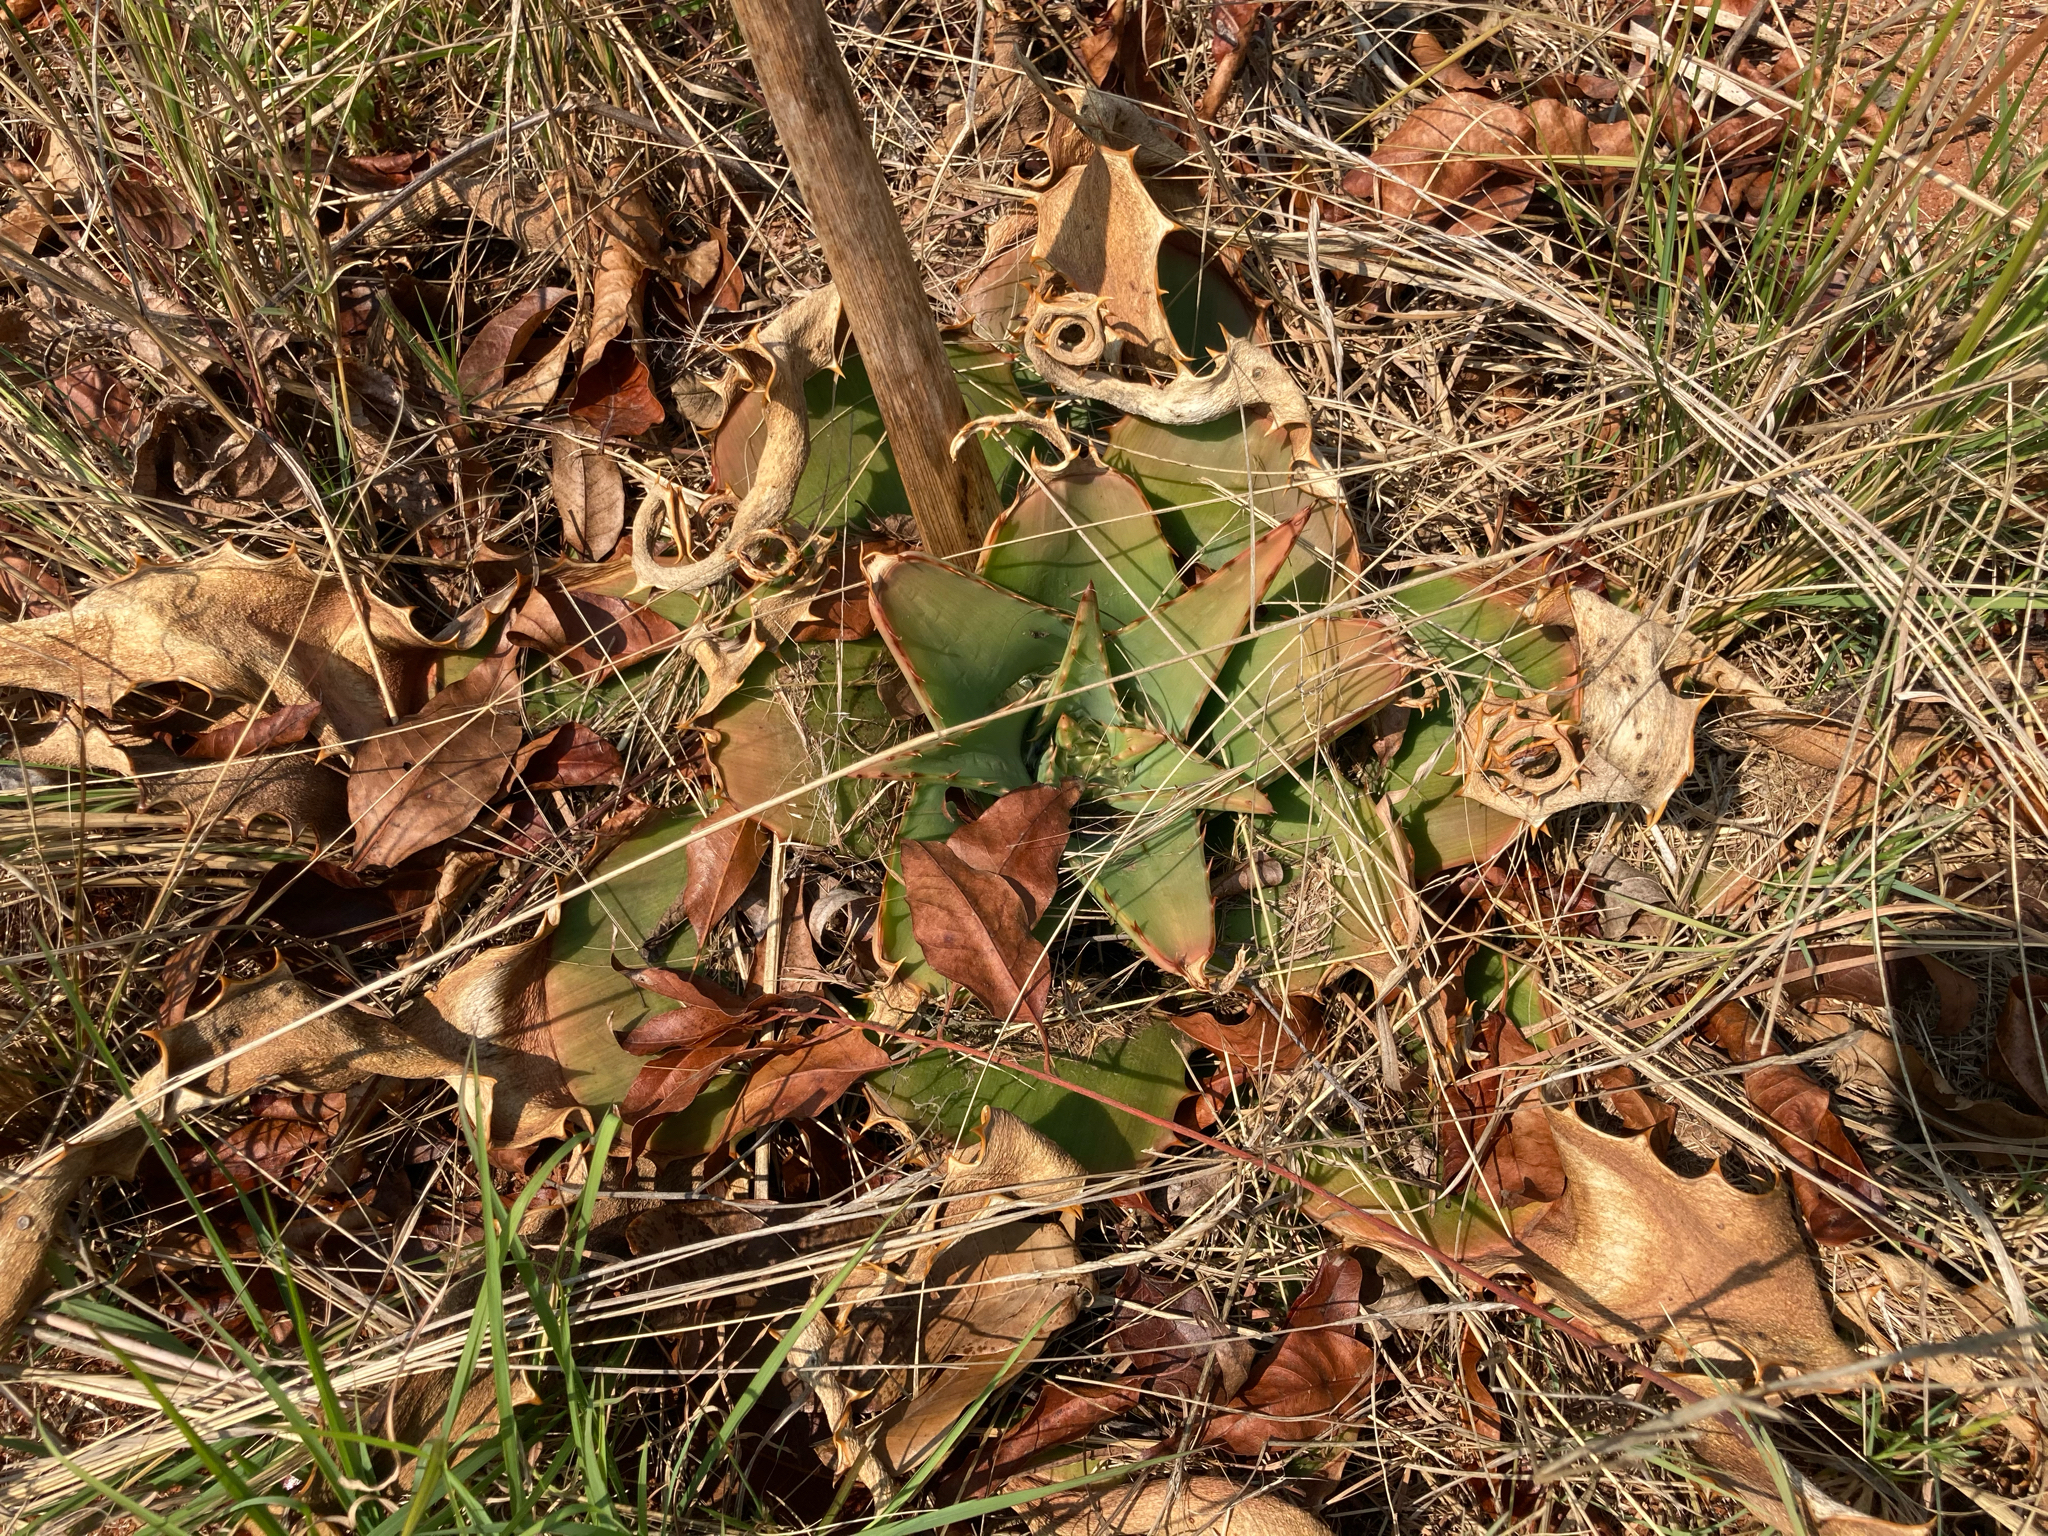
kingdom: Plantae
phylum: Tracheophyta
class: Liliopsida
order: Asparagales
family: Asphodelaceae
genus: Aloe
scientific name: Aloe simii
